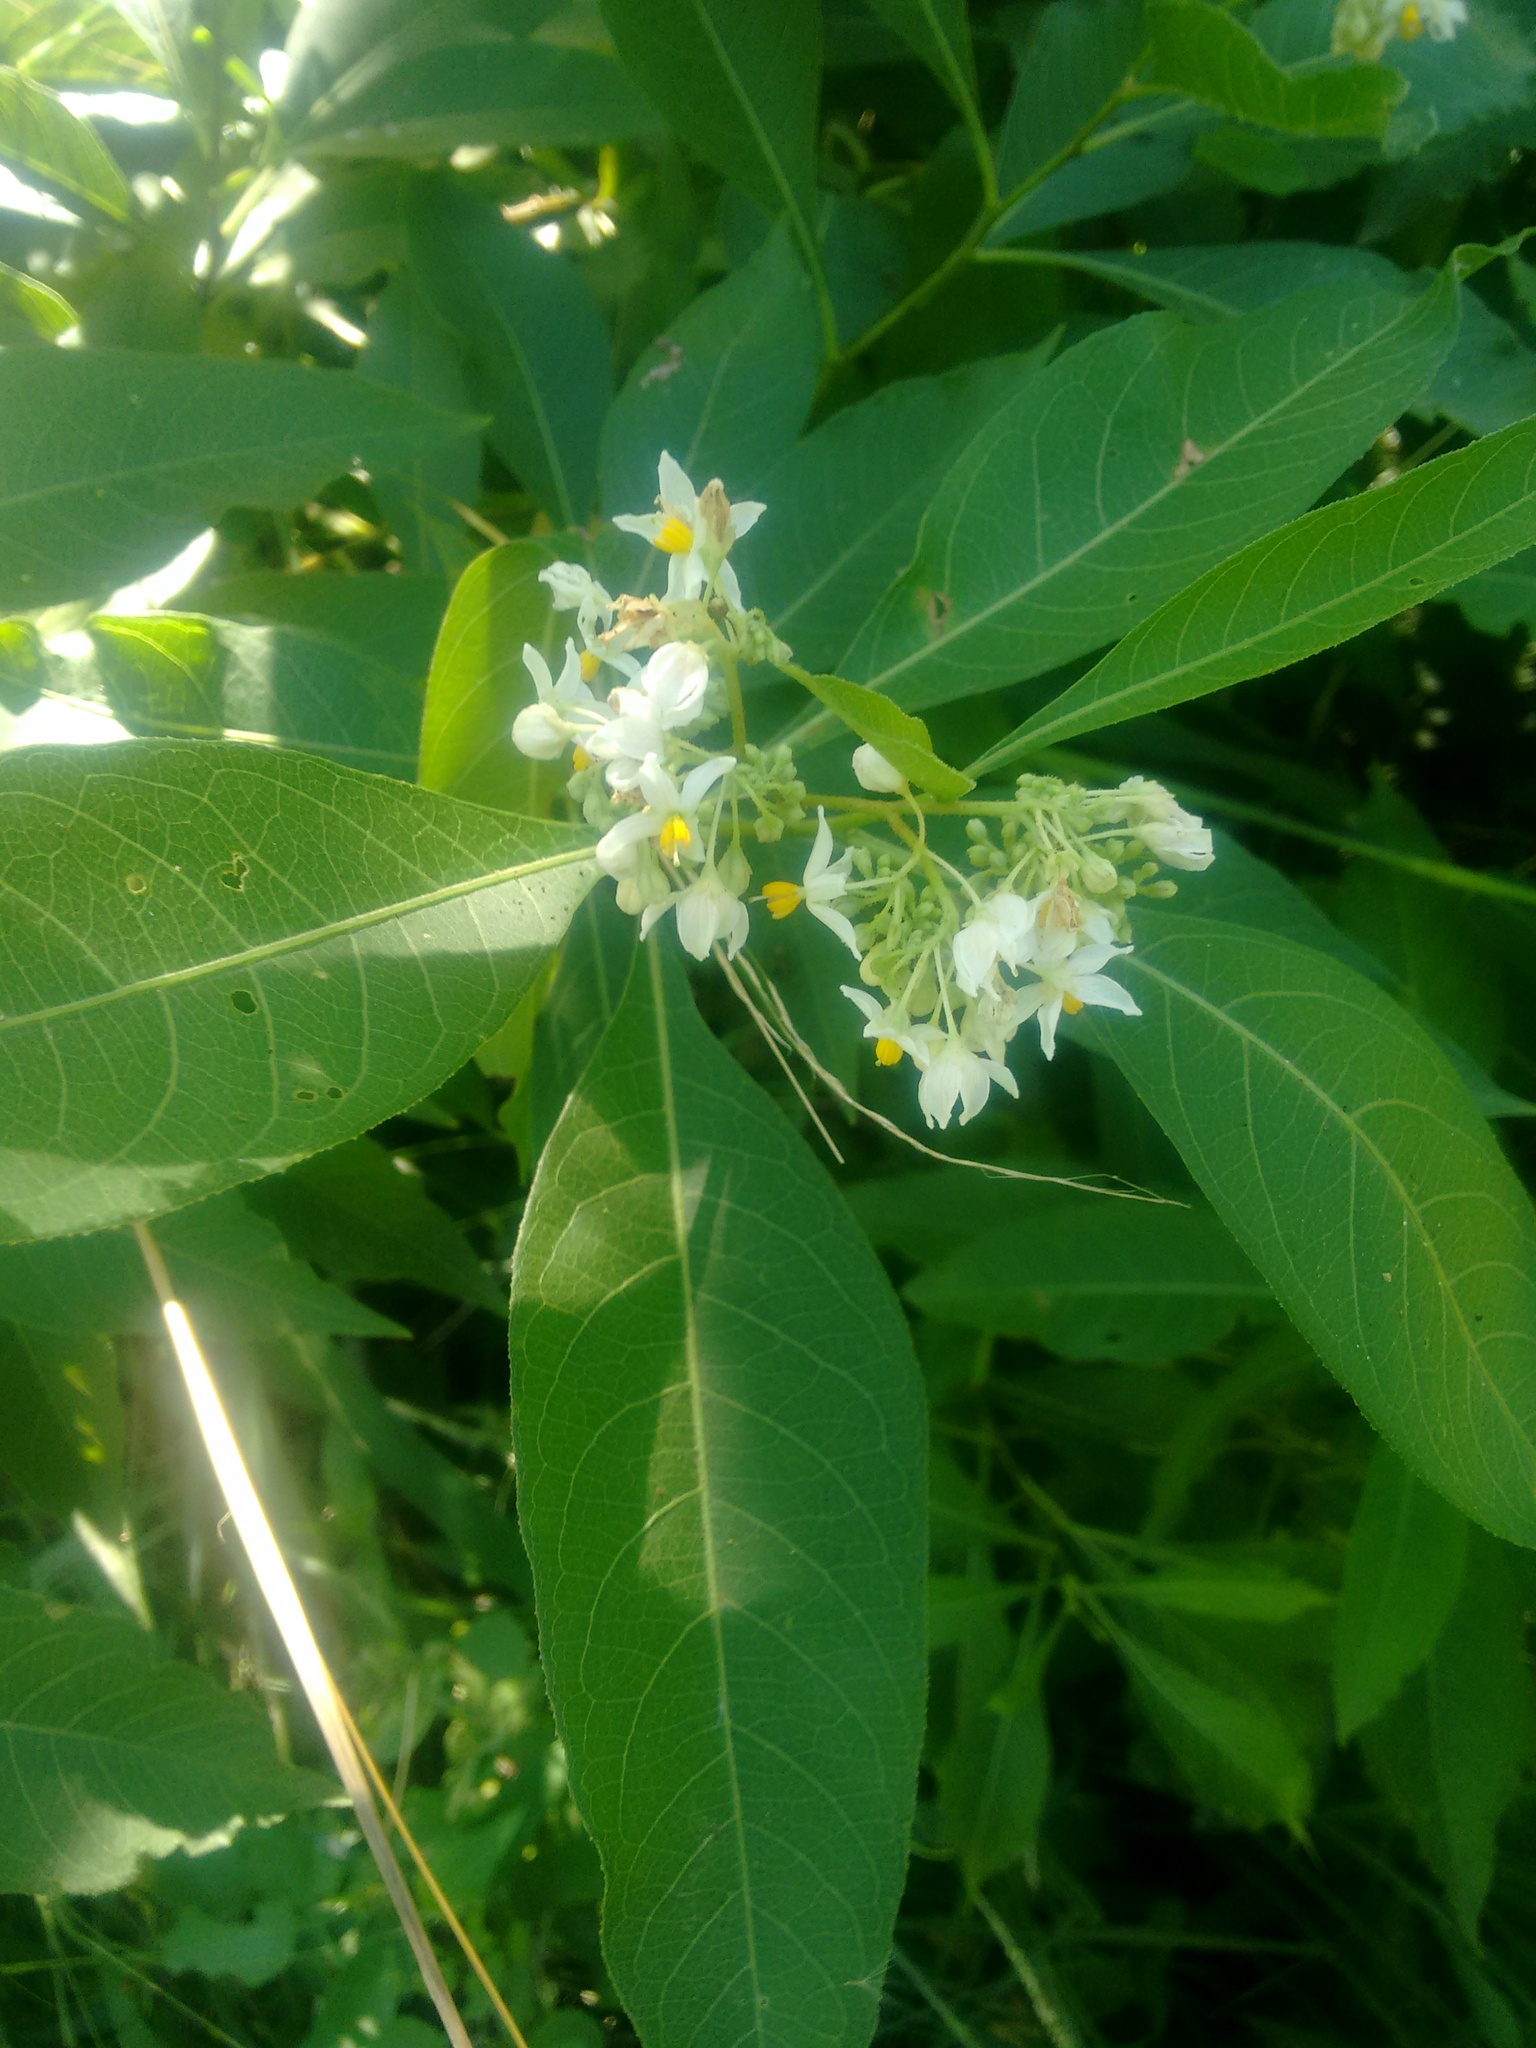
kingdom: Plantae
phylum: Tracheophyta
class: Magnoliopsida
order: Solanales
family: Solanaceae
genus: Solanum
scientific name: Solanum argentinum
